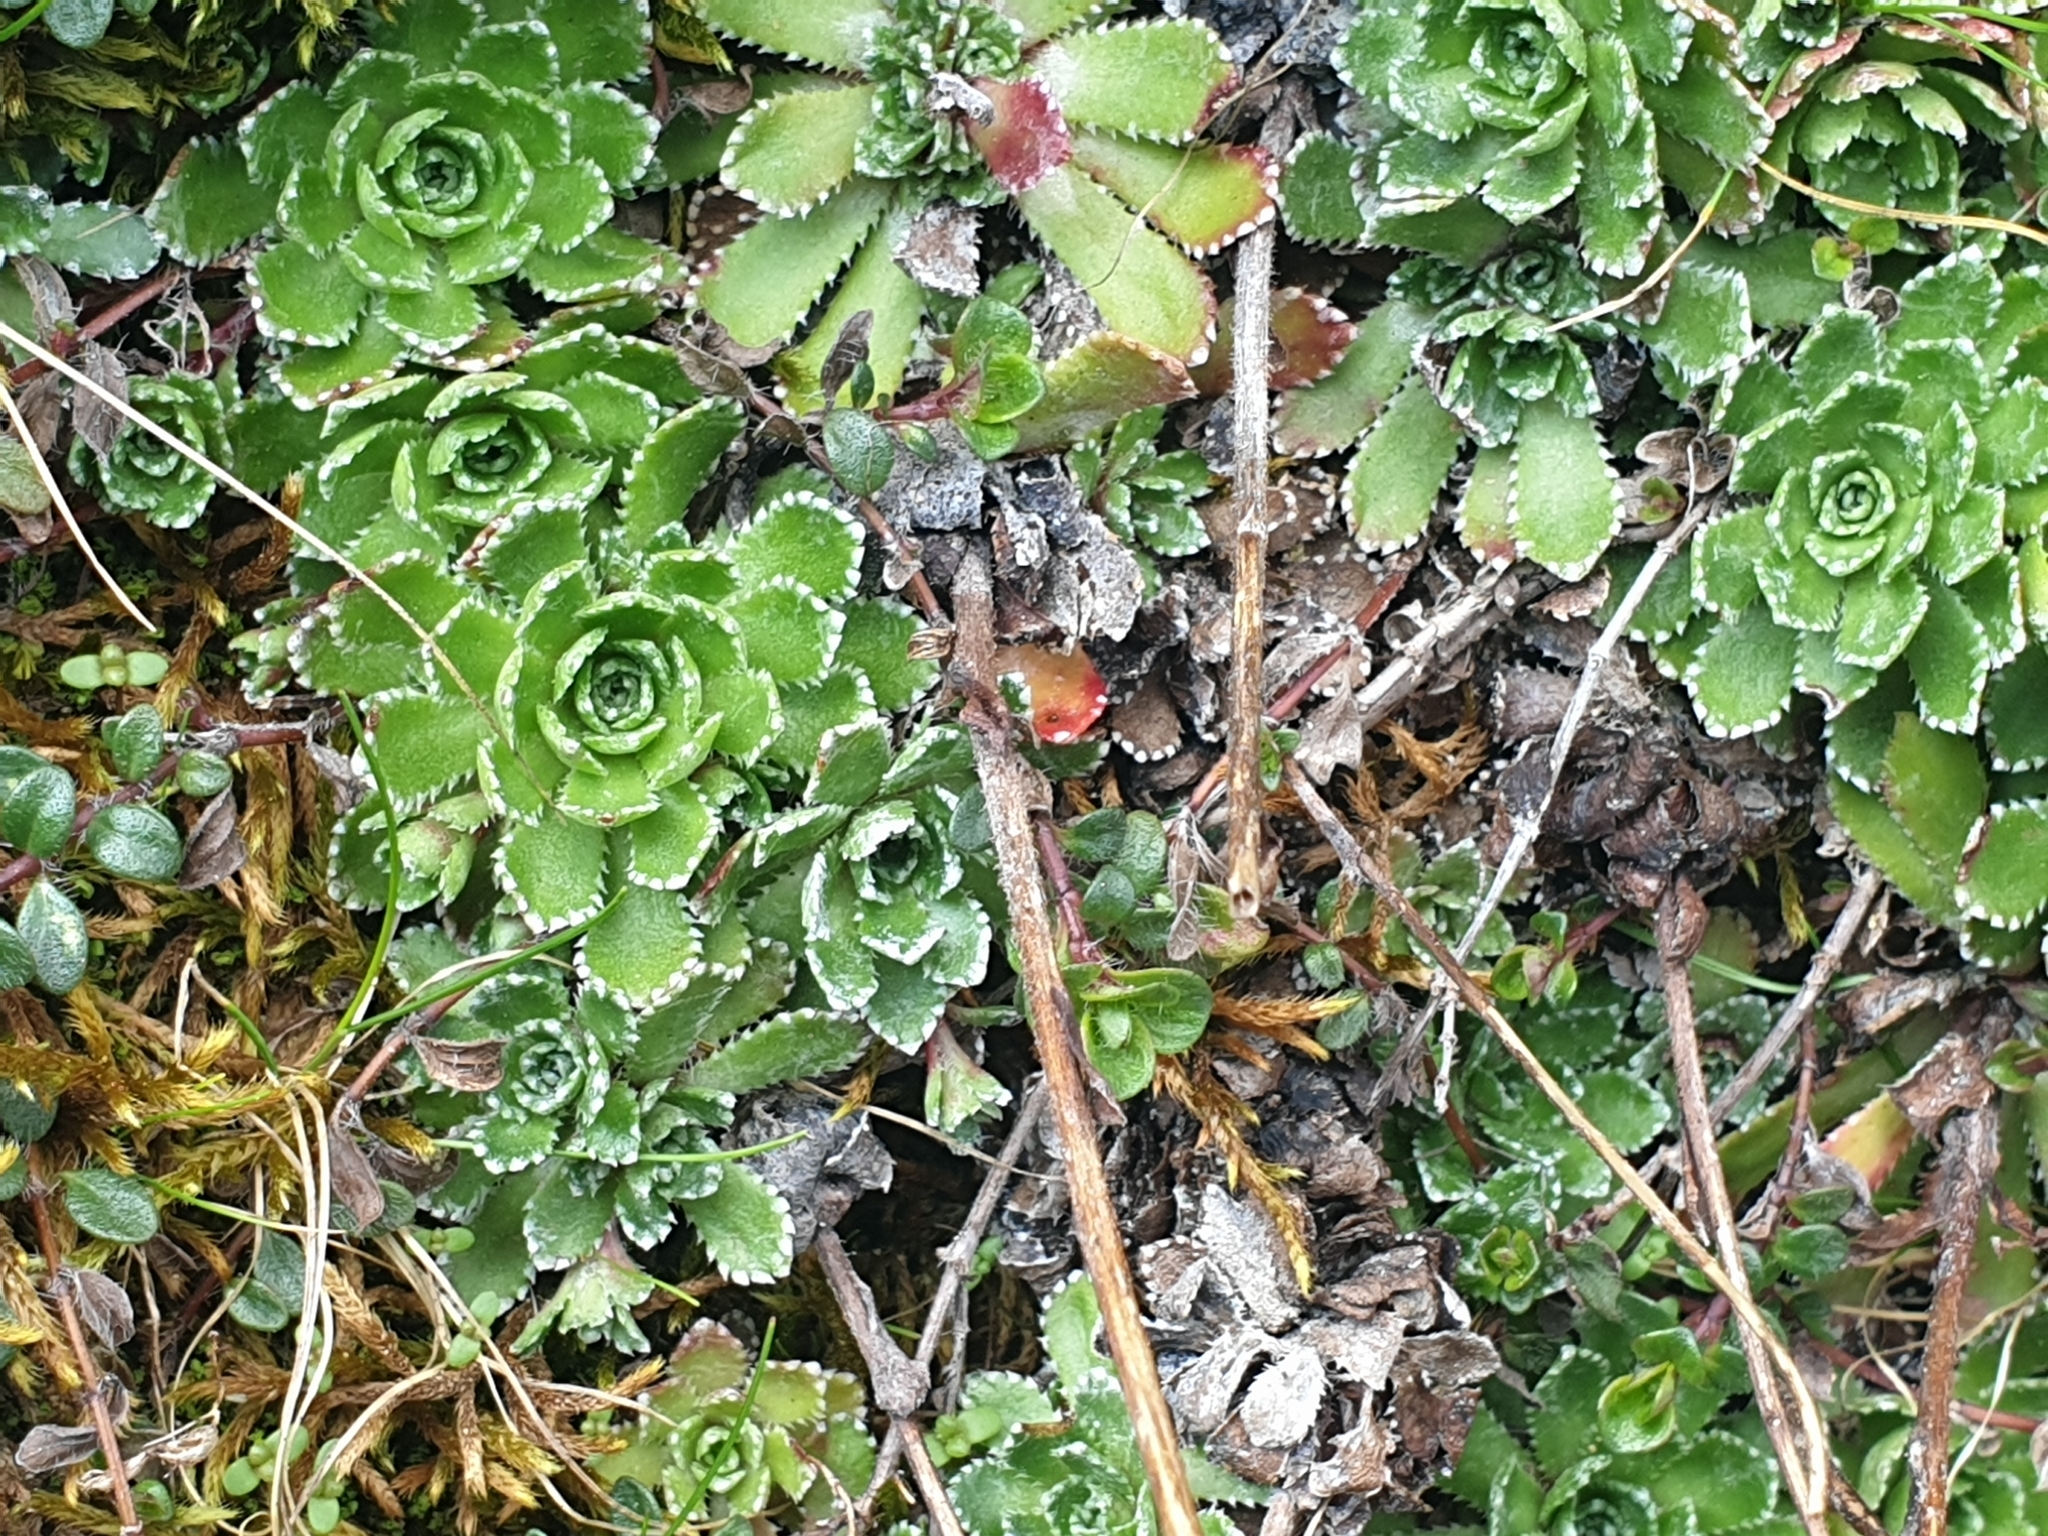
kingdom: Plantae
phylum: Tracheophyta
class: Magnoliopsida
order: Saxifragales
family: Saxifragaceae
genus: Saxifraga
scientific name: Saxifraga paniculata
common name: Livelong saxifrage
